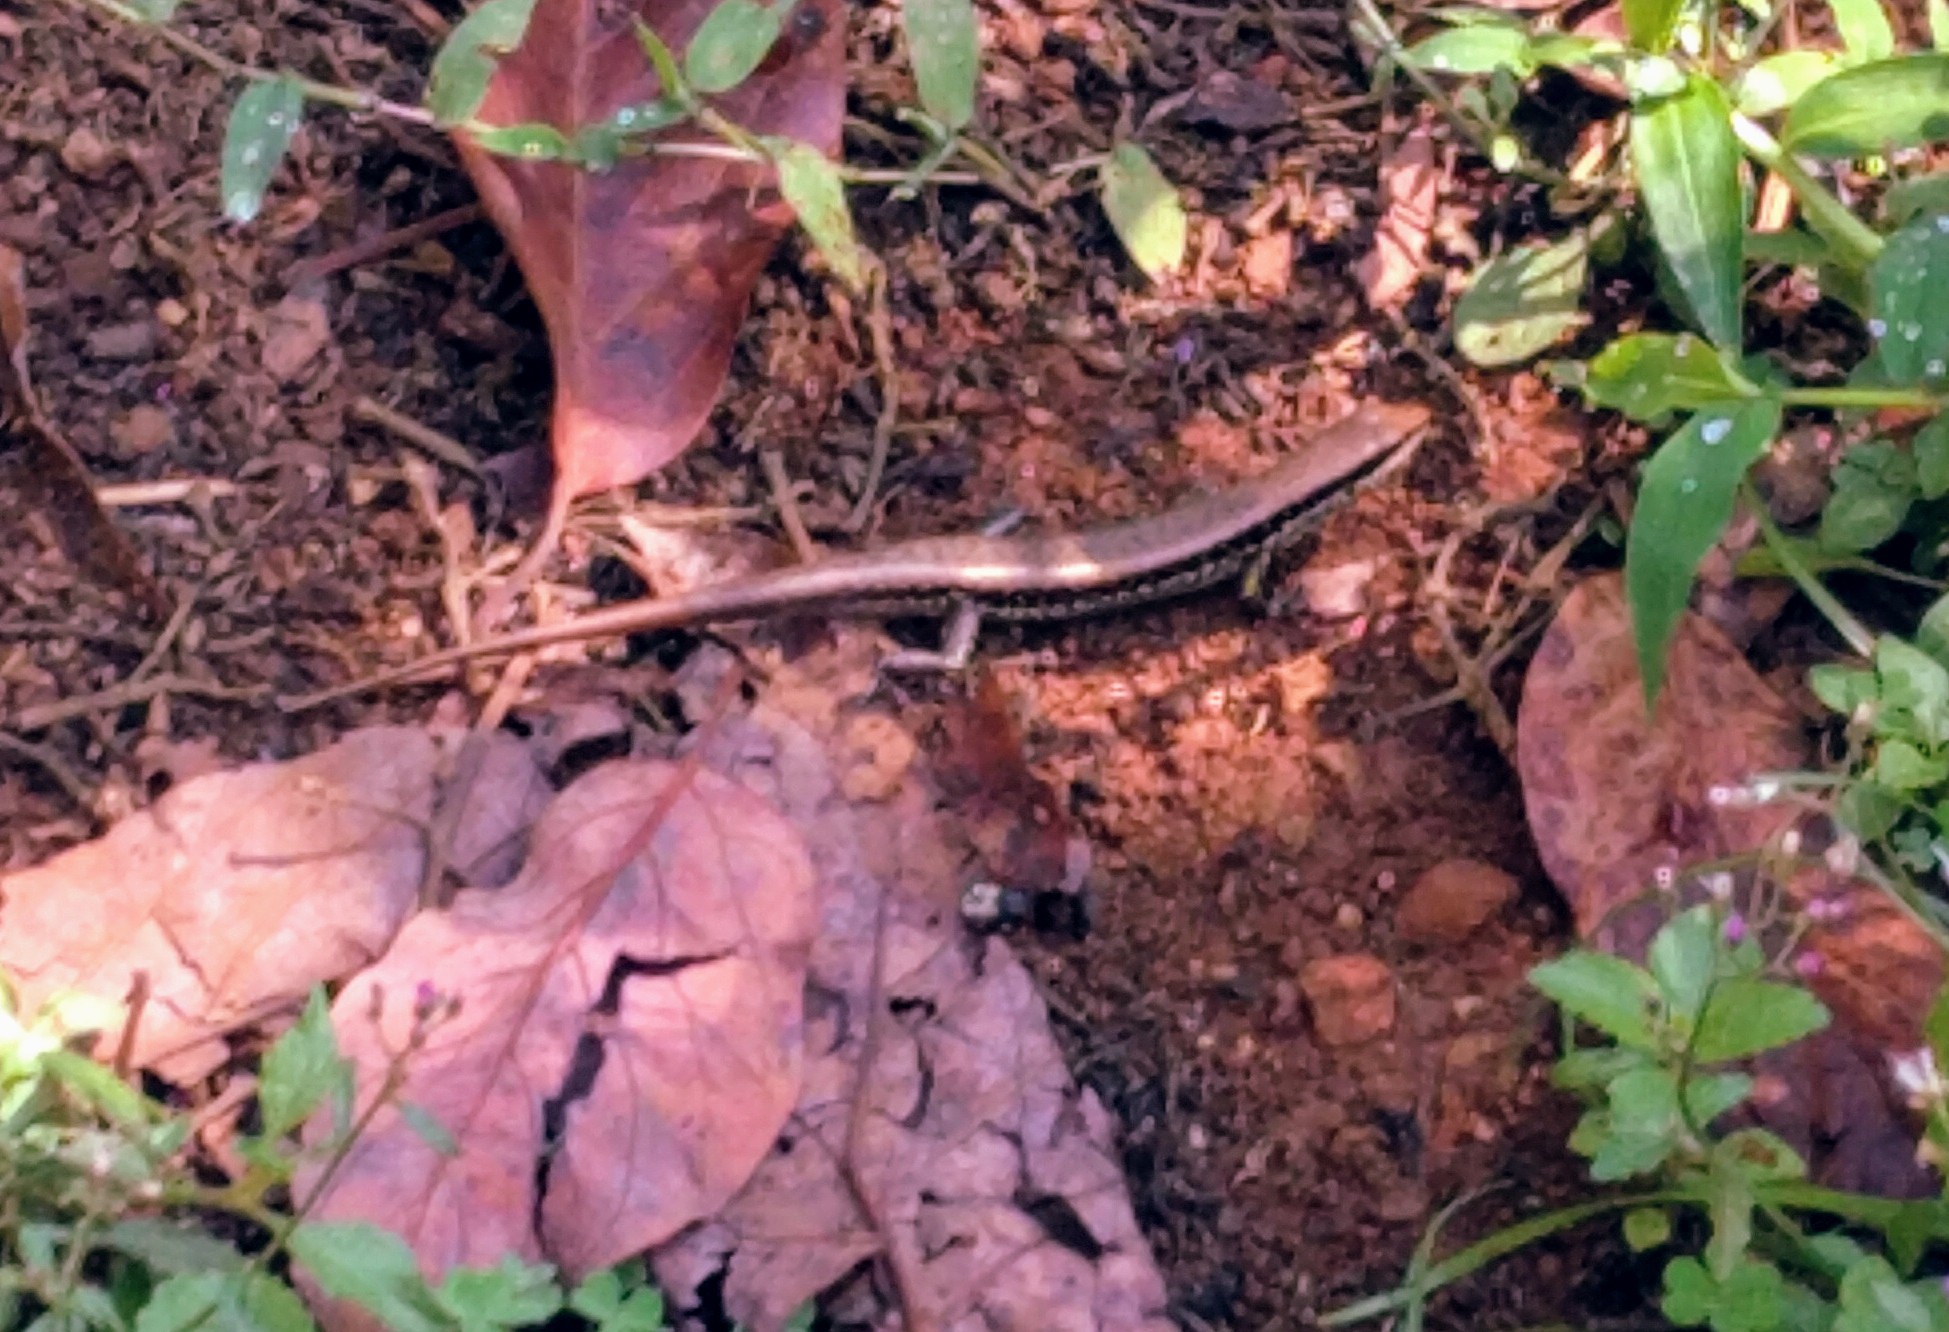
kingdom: Animalia
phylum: Chordata
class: Squamata
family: Scincidae
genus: Sphenomorphus
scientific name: Sphenomorphus maculatus
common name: Maculated forest skink
